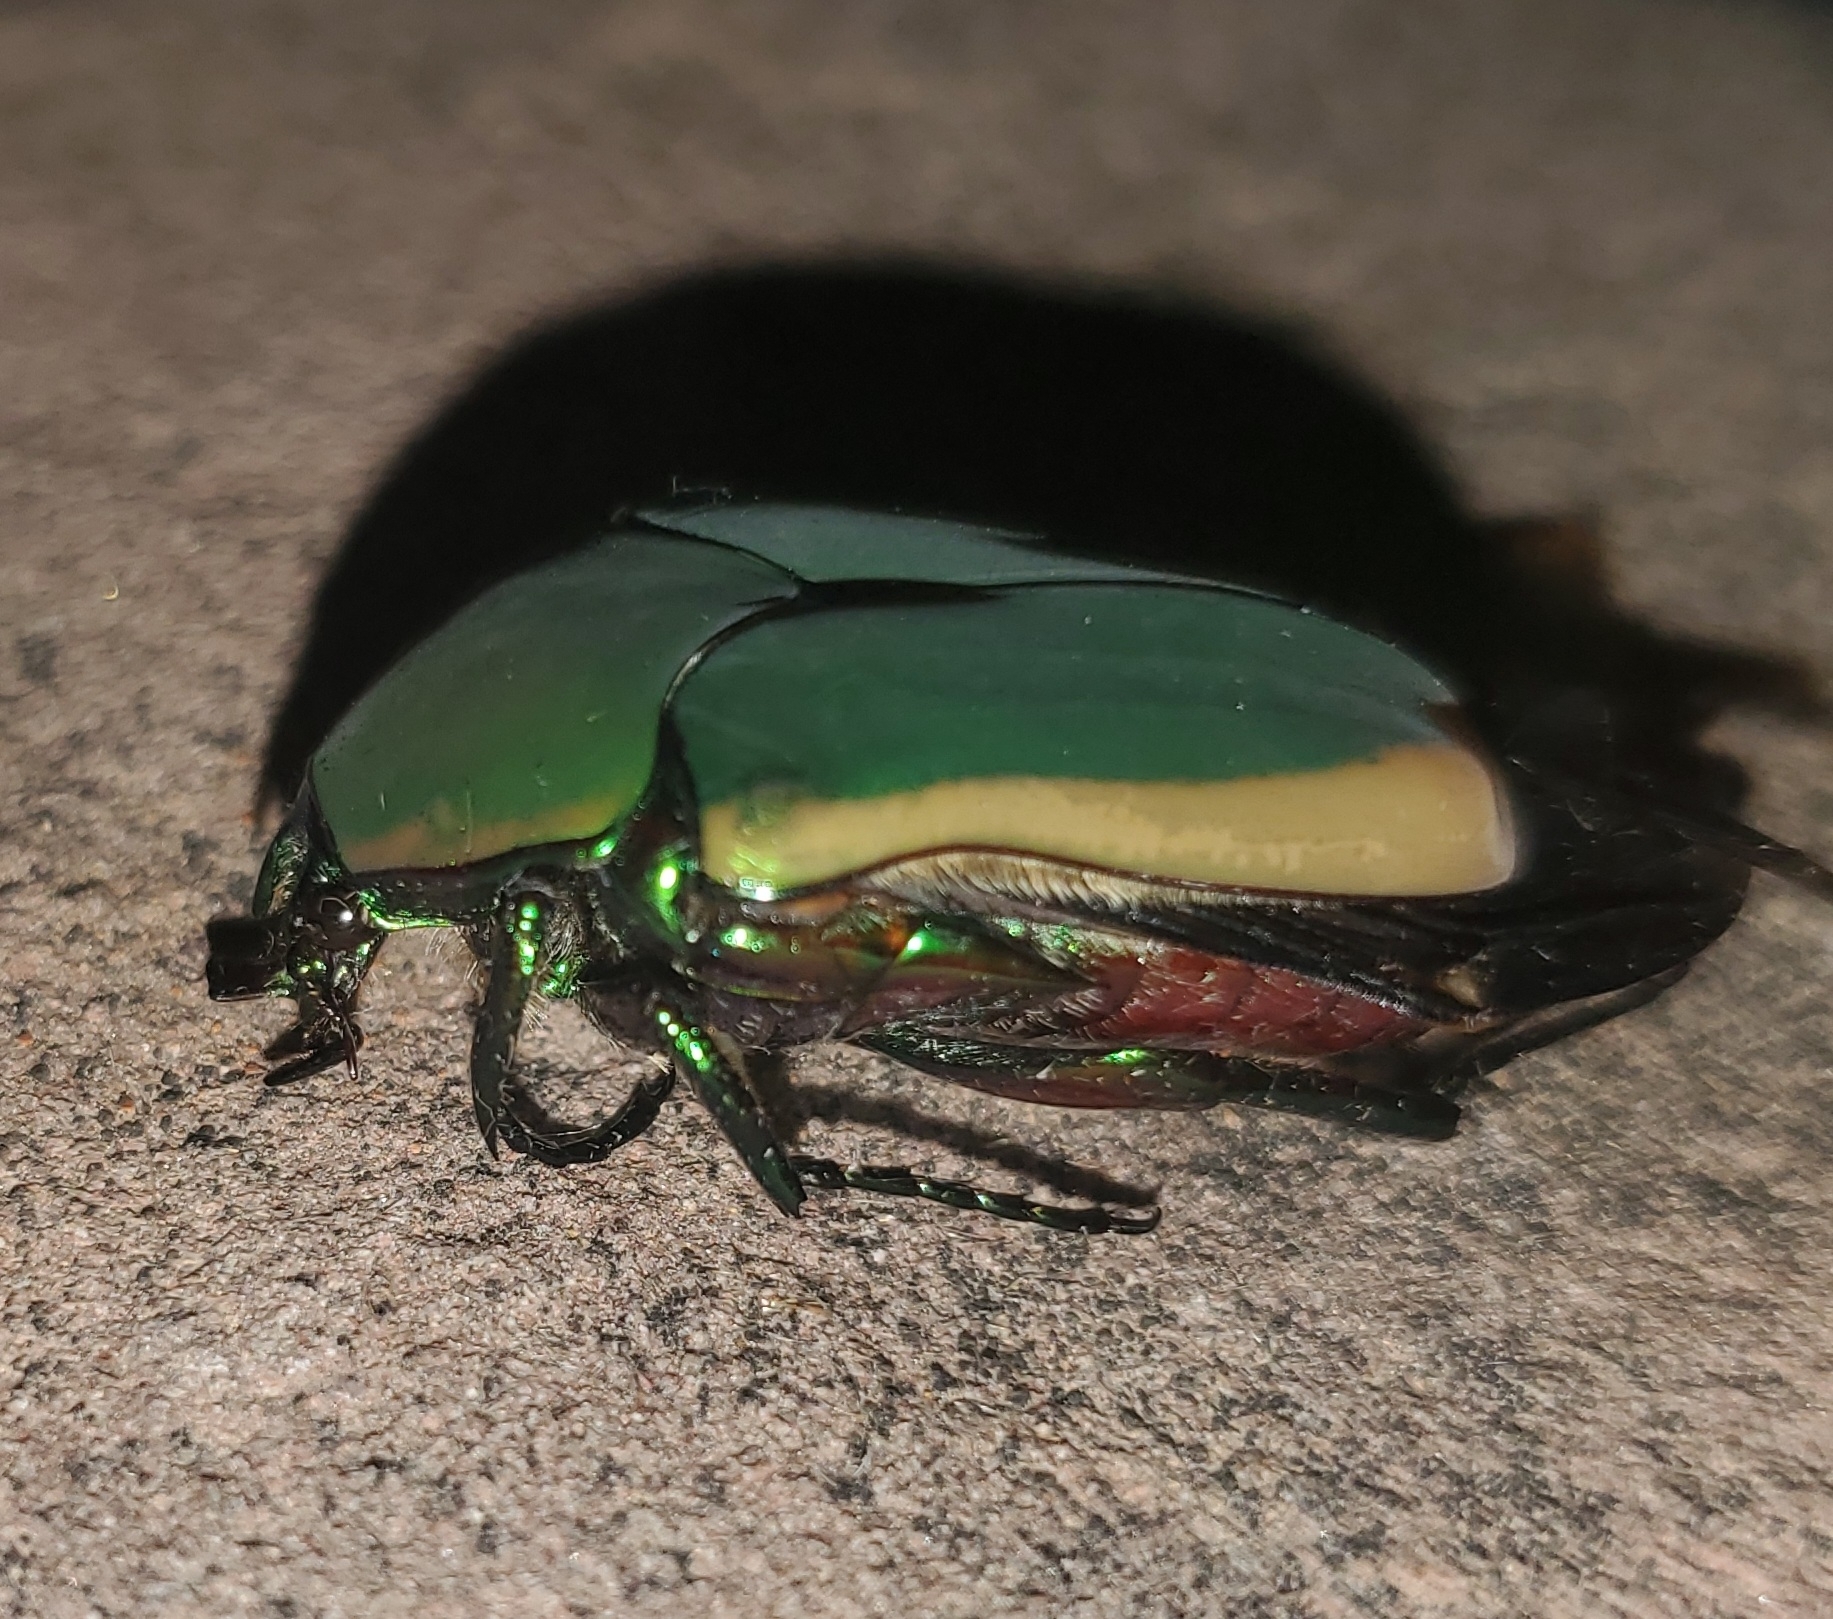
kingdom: Animalia
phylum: Arthropoda
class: Insecta
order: Coleoptera
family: Scarabaeidae
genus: Cotinis
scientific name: Cotinis mutabilis
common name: Figeater beetle
